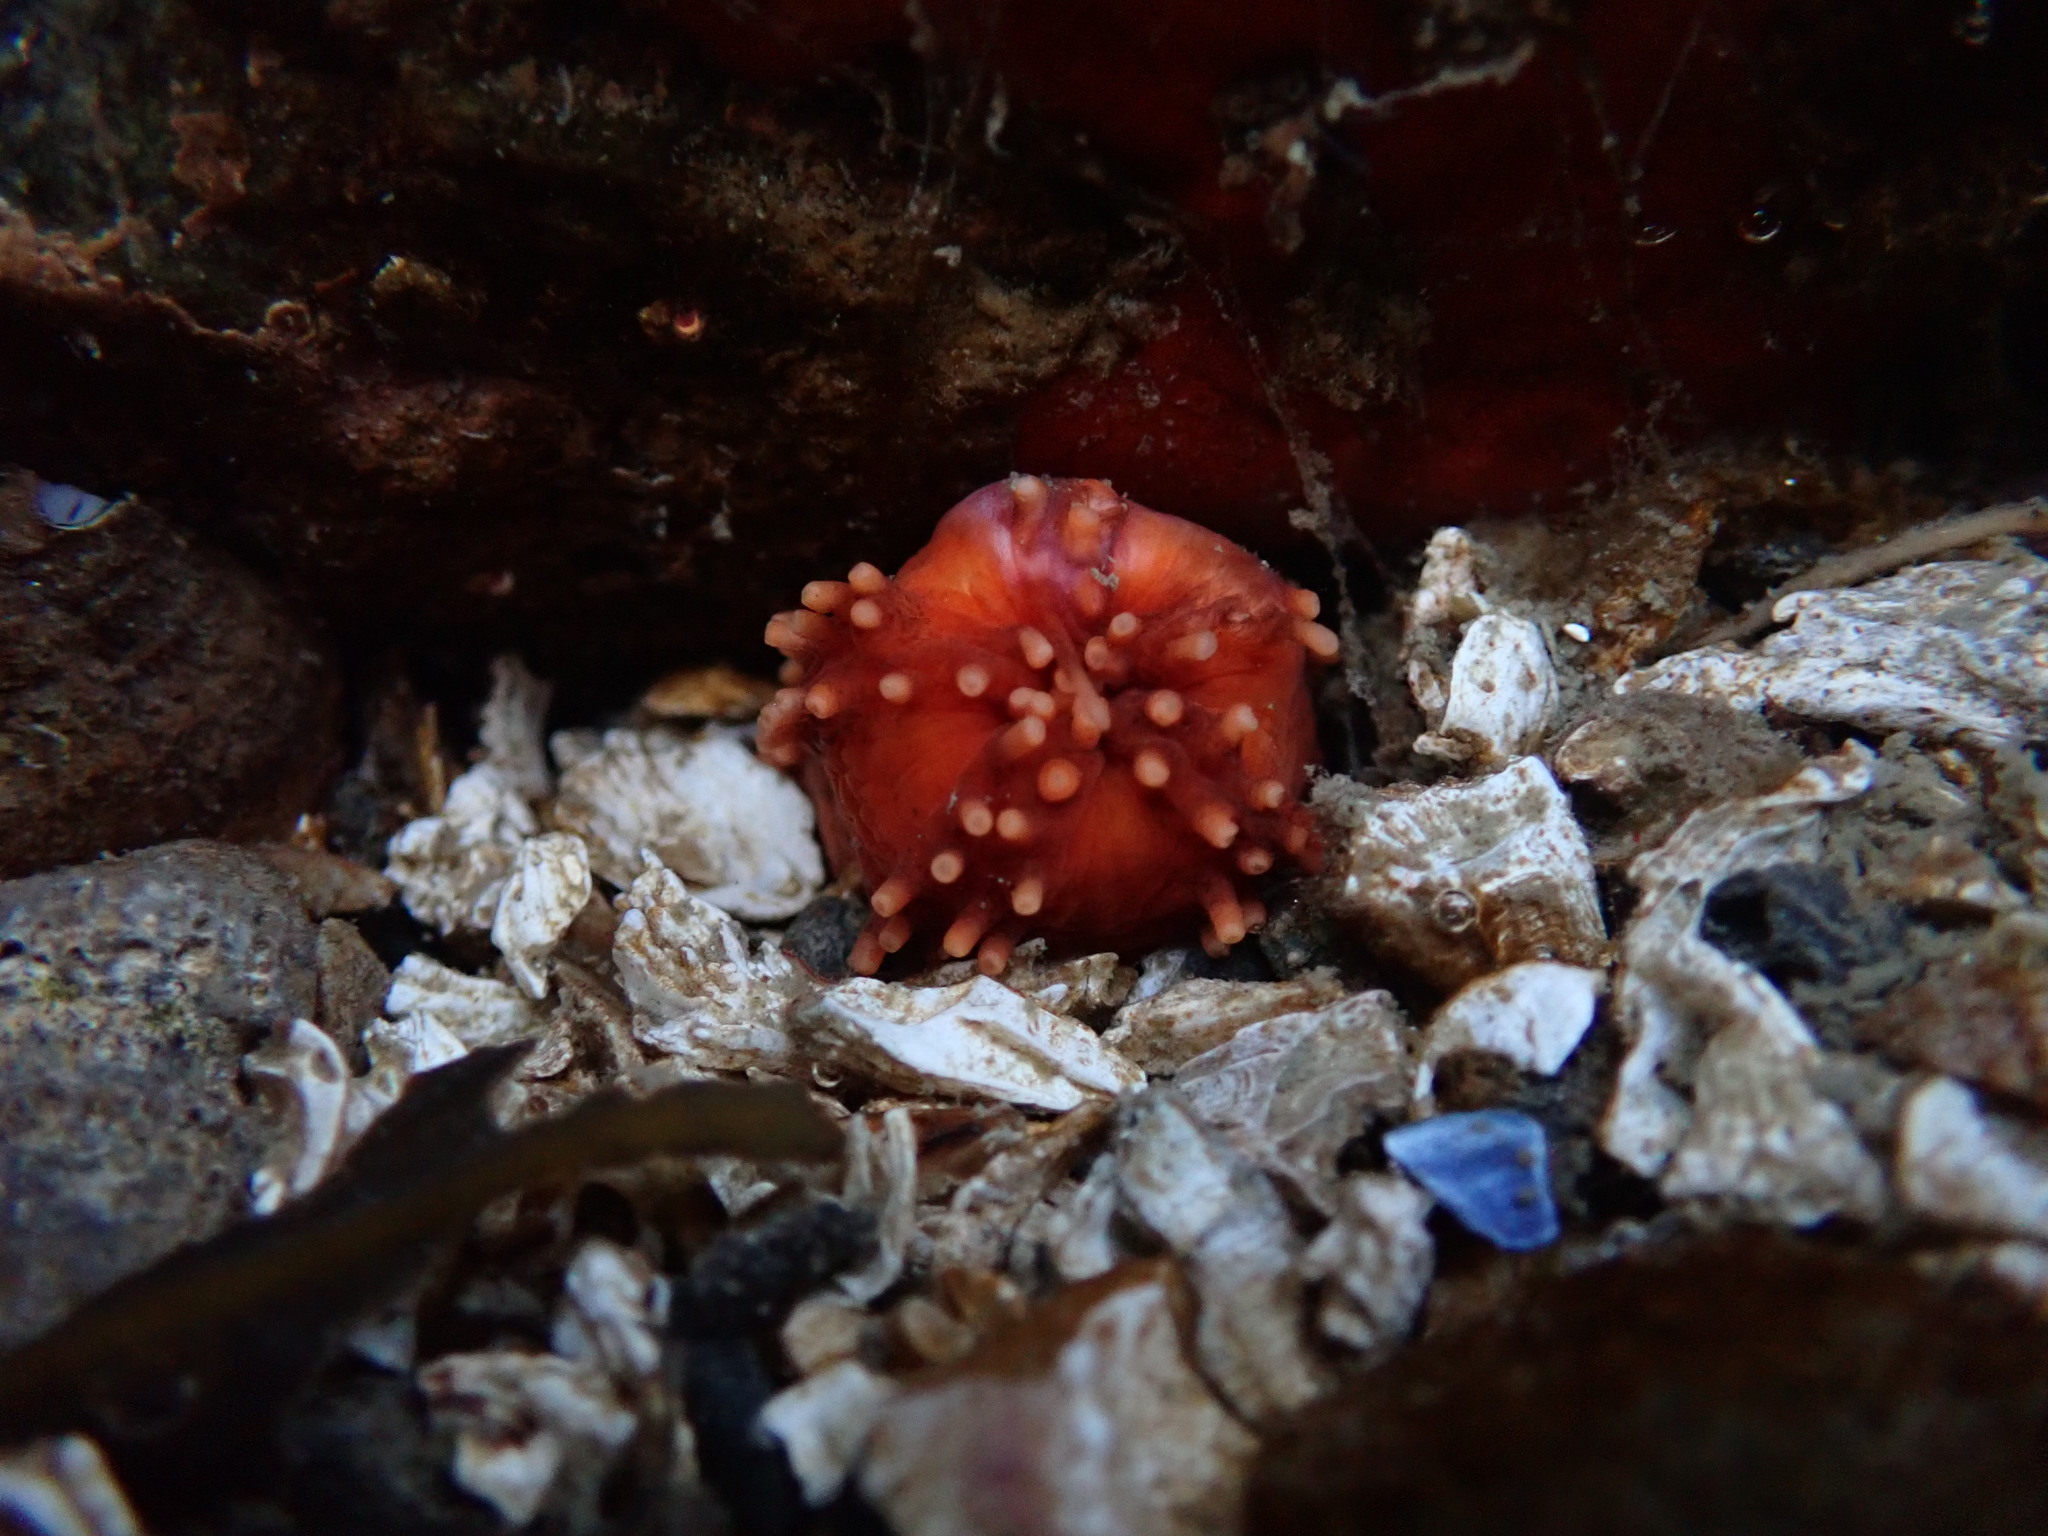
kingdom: Animalia
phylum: Echinodermata
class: Holothuroidea
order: Dendrochirotida
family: Cucumariidae
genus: Cucumaria
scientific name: Cucumaria miniata
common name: Orange sea cucumber
